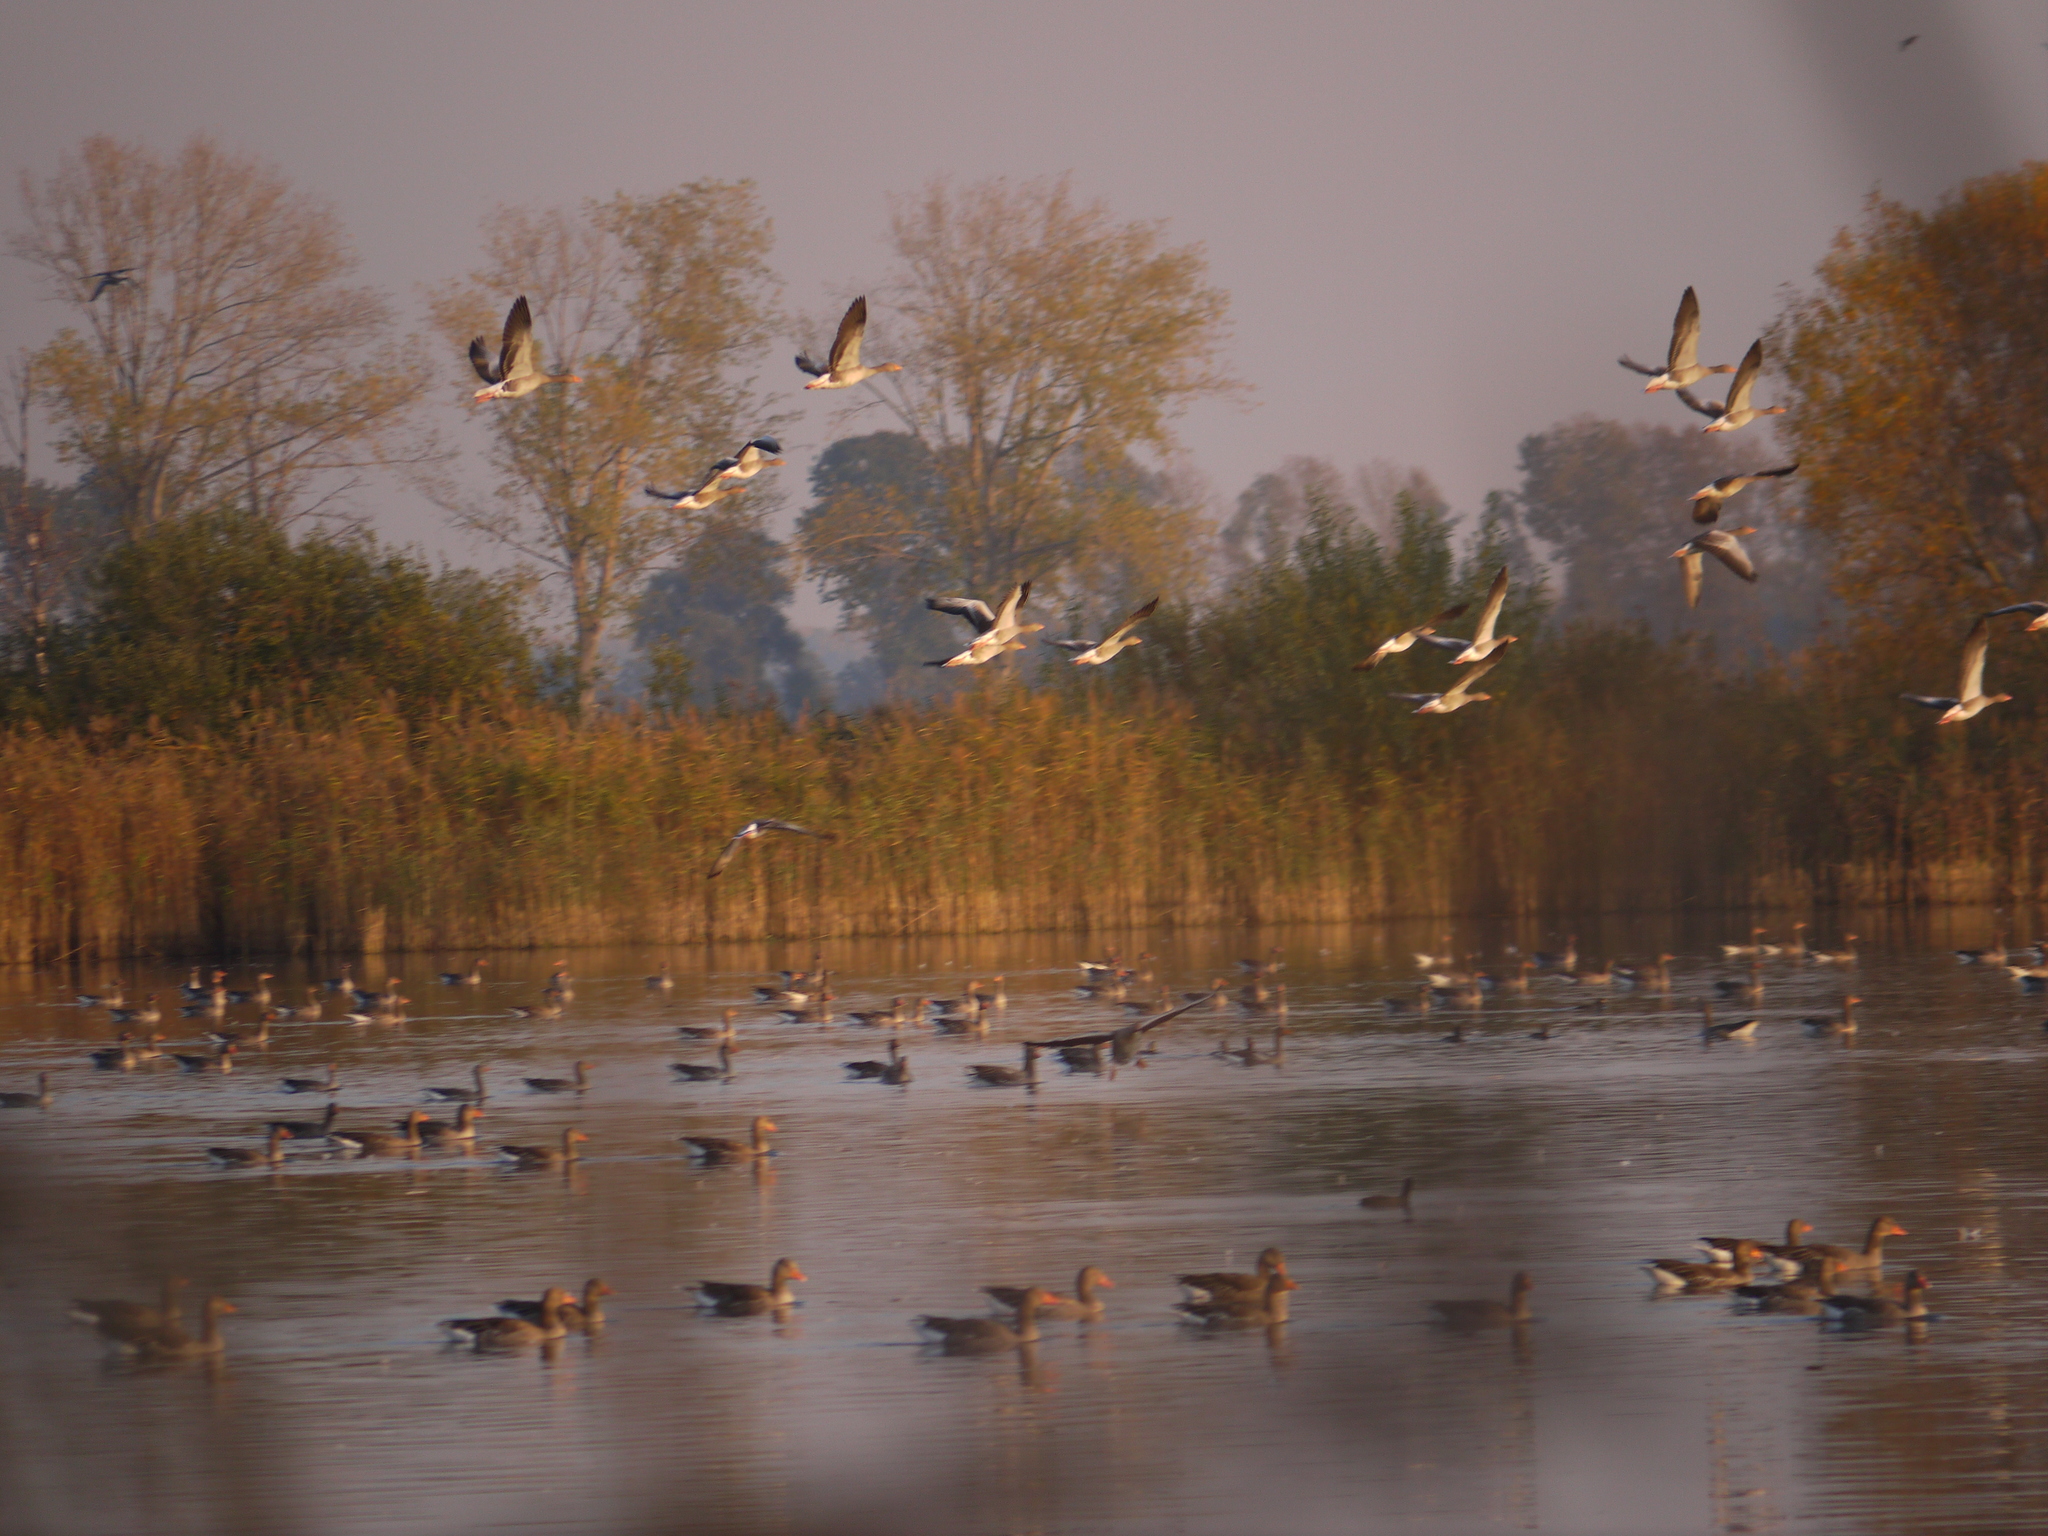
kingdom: Animalia
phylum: Chordata
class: Aves
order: Anseriformes
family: Anatidae
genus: Anser
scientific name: Anser anser
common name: Greylag goose
